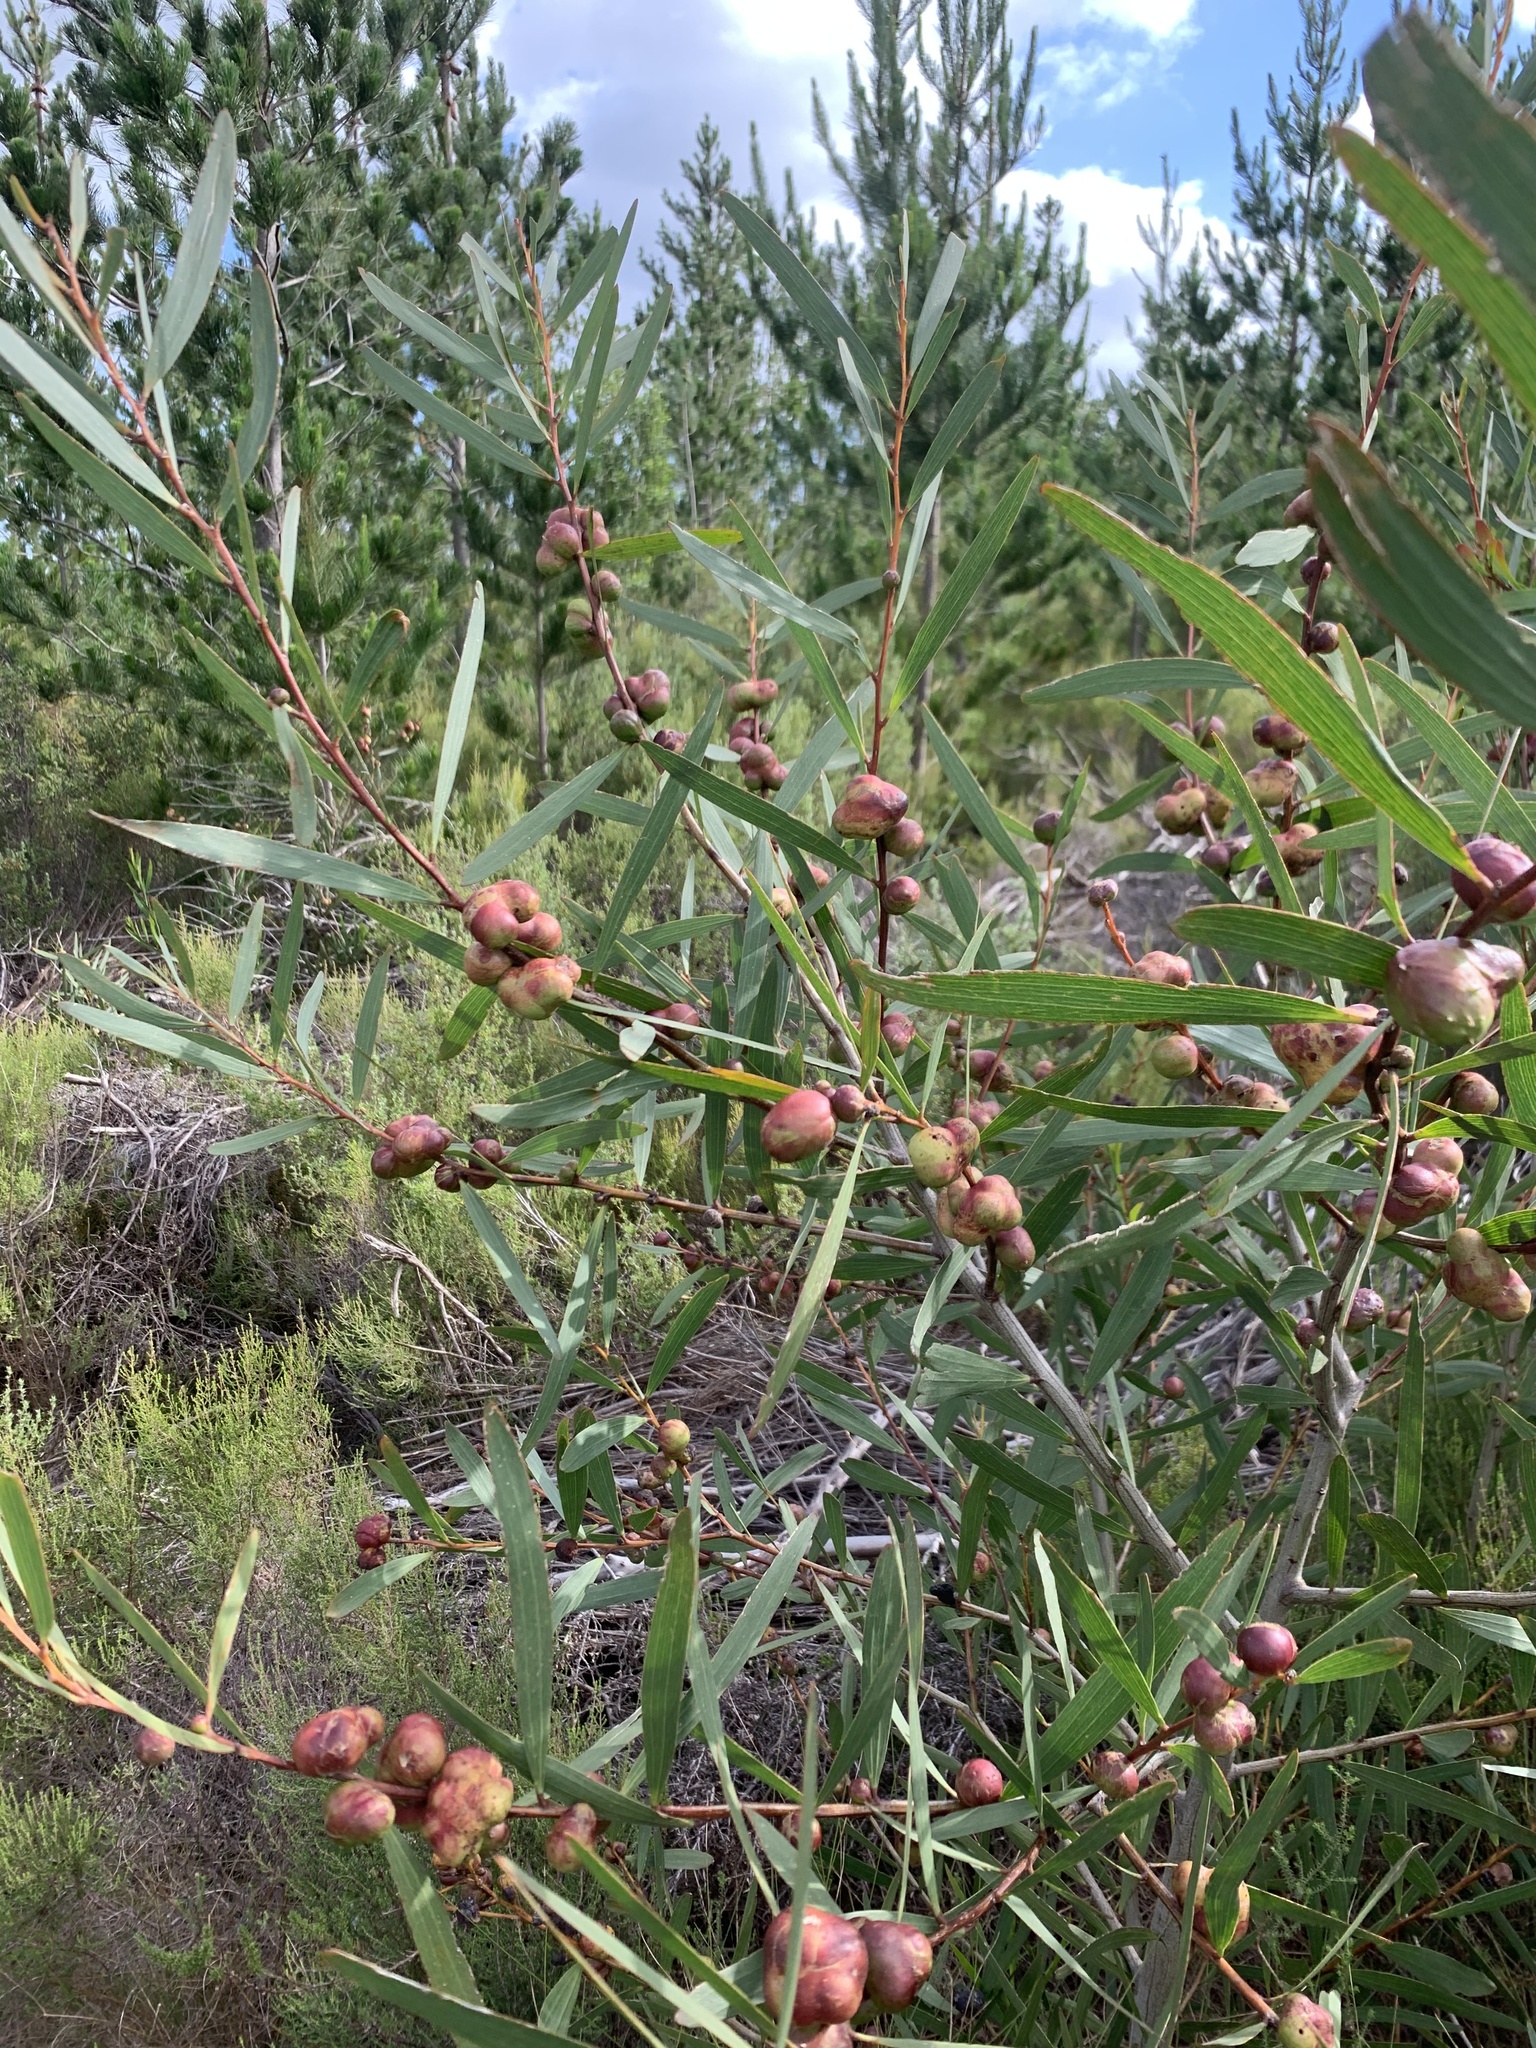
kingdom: Plantae
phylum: Tracheophyta
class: Magnoliopsida
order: Fabales
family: Fabaceae
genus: Acacia
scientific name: Acacia longifolia
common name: Sydney golden wattle
